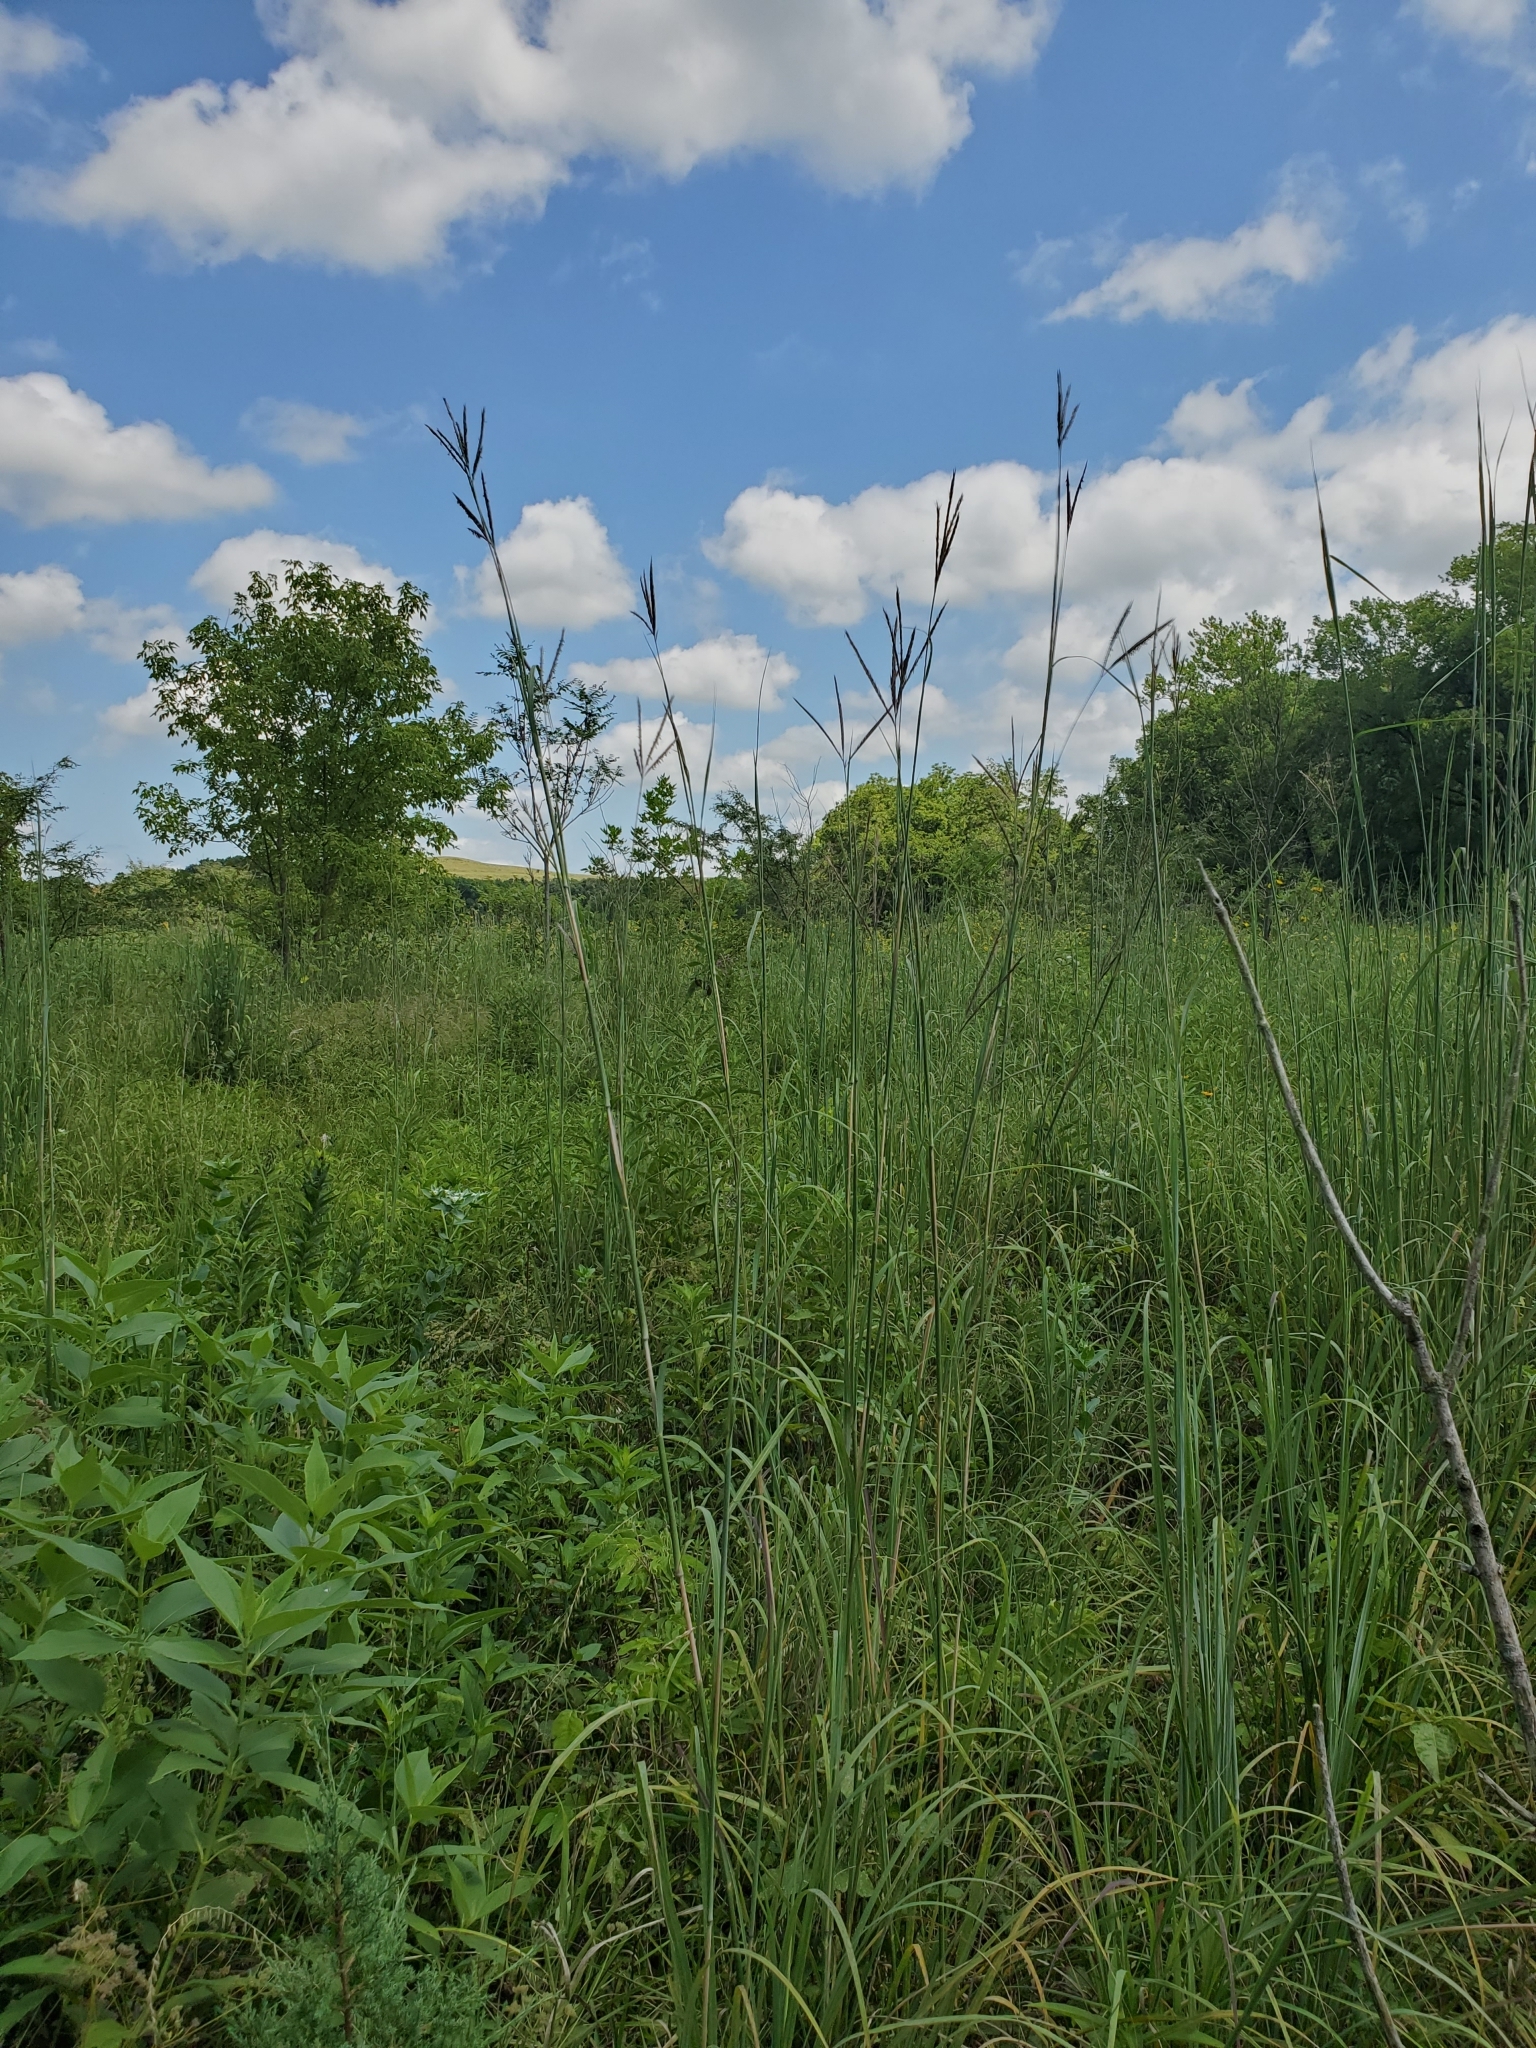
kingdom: Plantae
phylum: Tracheophyta
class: Liliopsida
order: Poales
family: Poaceae
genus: Andropogon
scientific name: Andropogon gerardi
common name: Big bluestem
